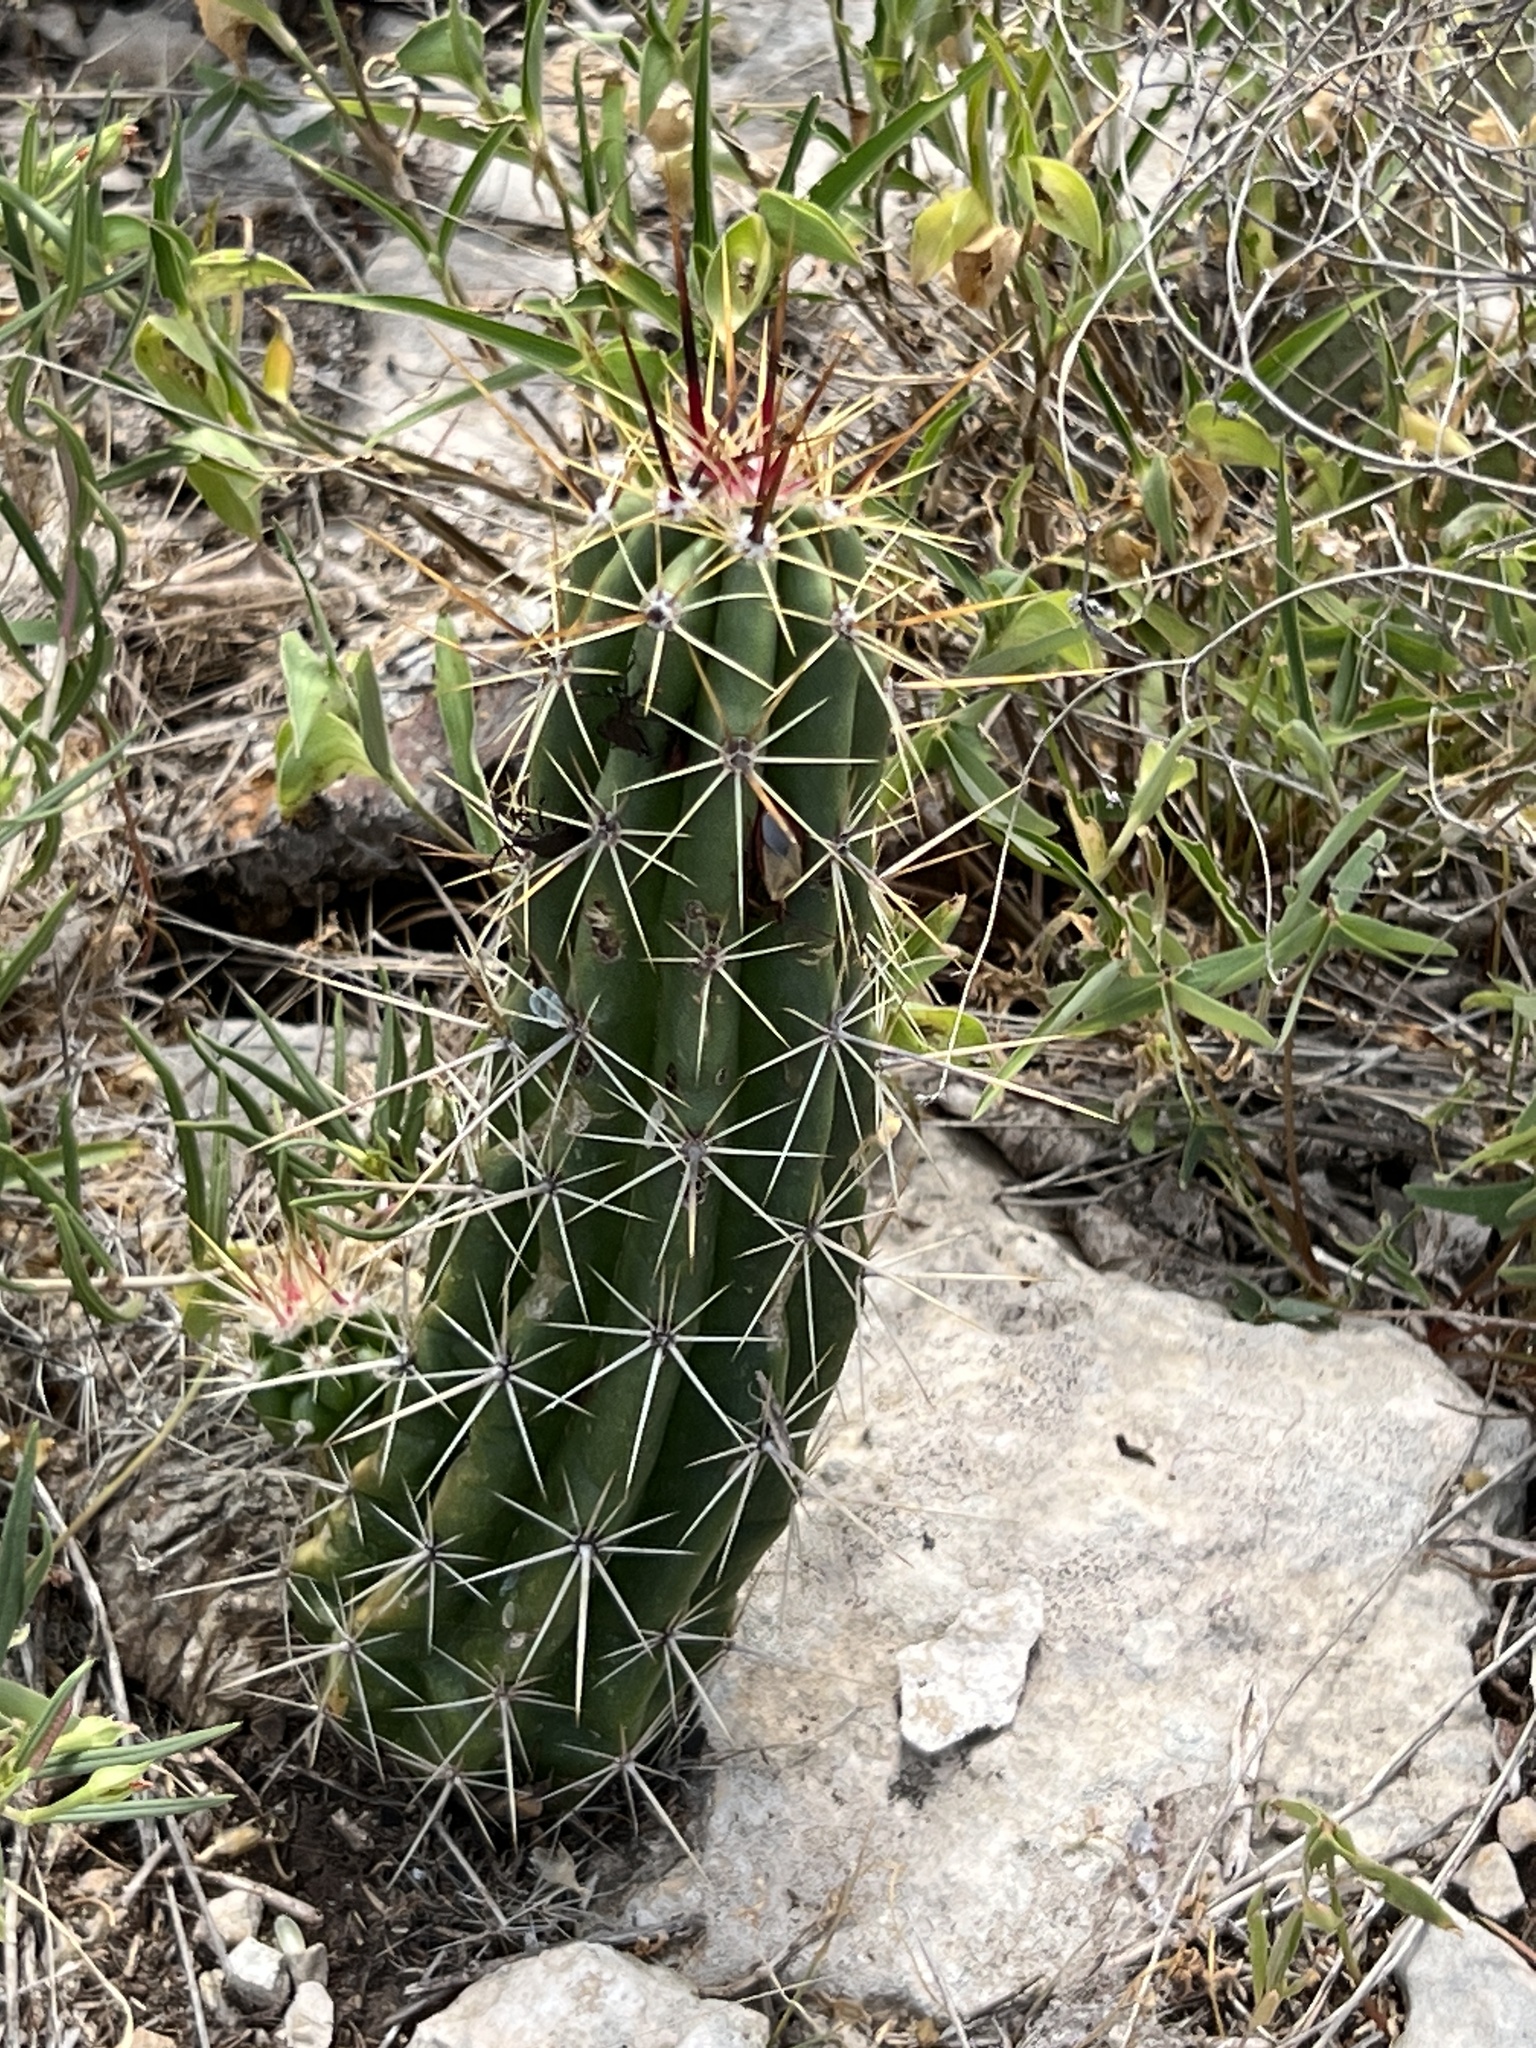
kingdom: Plantae
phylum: Tracheophyta
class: Magnoliopsida
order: Caryophyllales
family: Cactaceae
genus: Echinocereus
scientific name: Echinocereus enneacanthus
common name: Pitaya
